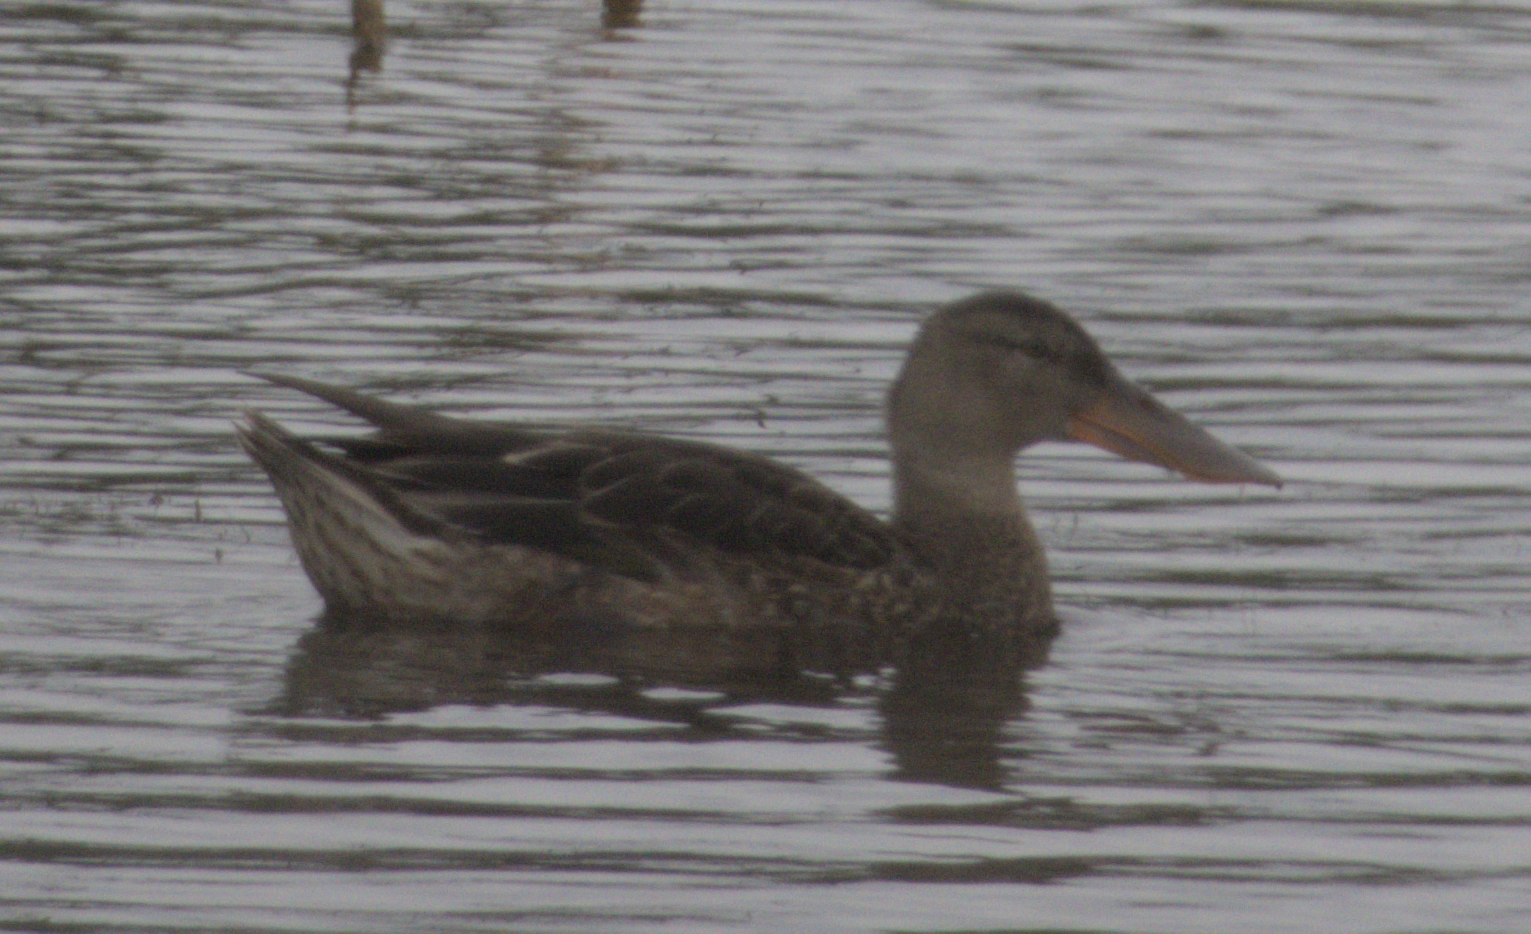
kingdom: Animalia
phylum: Chordata
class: Aves
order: Anseriformes
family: Anatidae
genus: Spatula
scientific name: Spatula clypeata
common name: Northern shoveler
